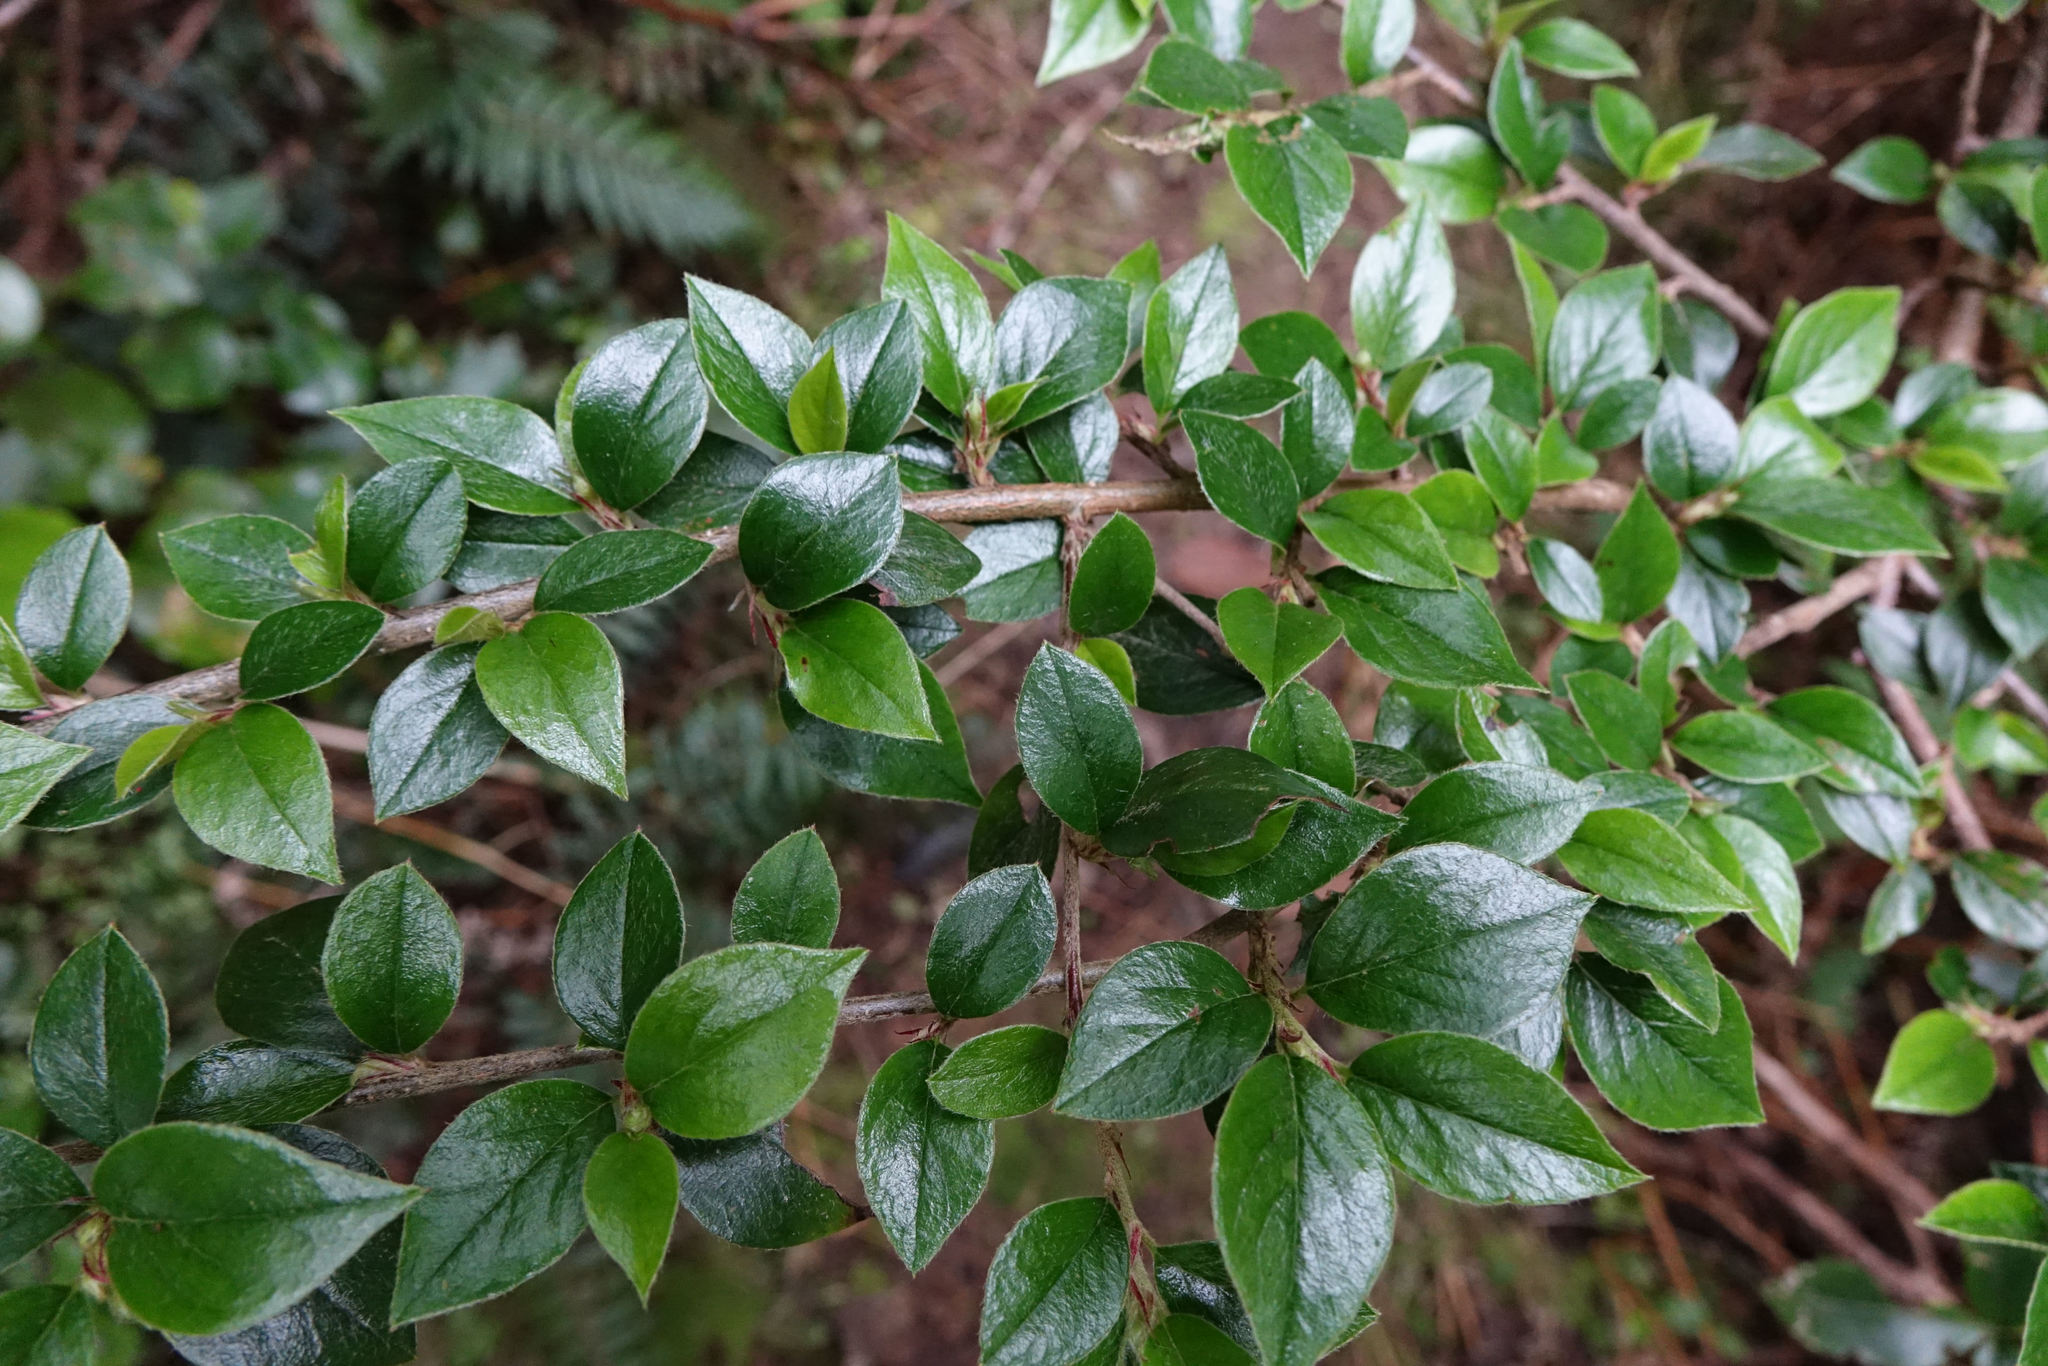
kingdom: Plantae
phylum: Tracheophyta
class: Magnoliopsida
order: Rosales
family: Rosaceae
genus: Cotoneaster
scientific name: Cotoneaster simonsii
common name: Himalayan cotoneaster
